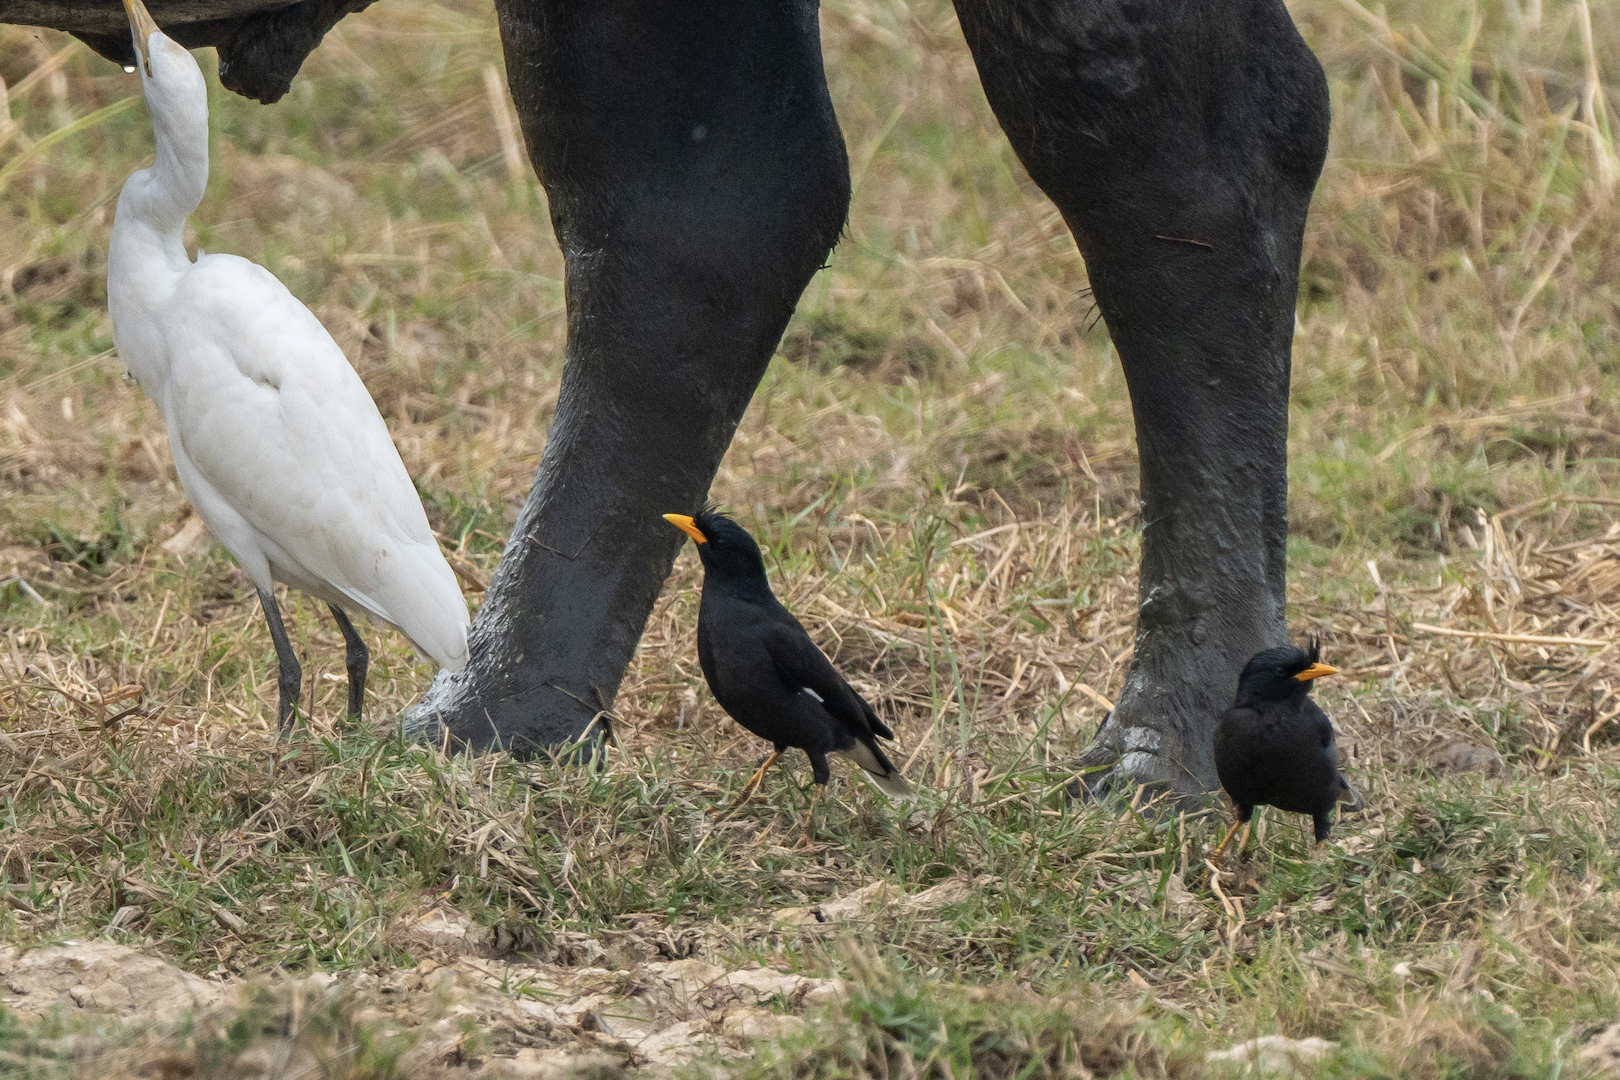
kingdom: Animalia
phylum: Chordata
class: Aves
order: Passeriformes
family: Sturnidae
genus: Acridotheres
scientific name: Acridotheres grandis
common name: Great myna
